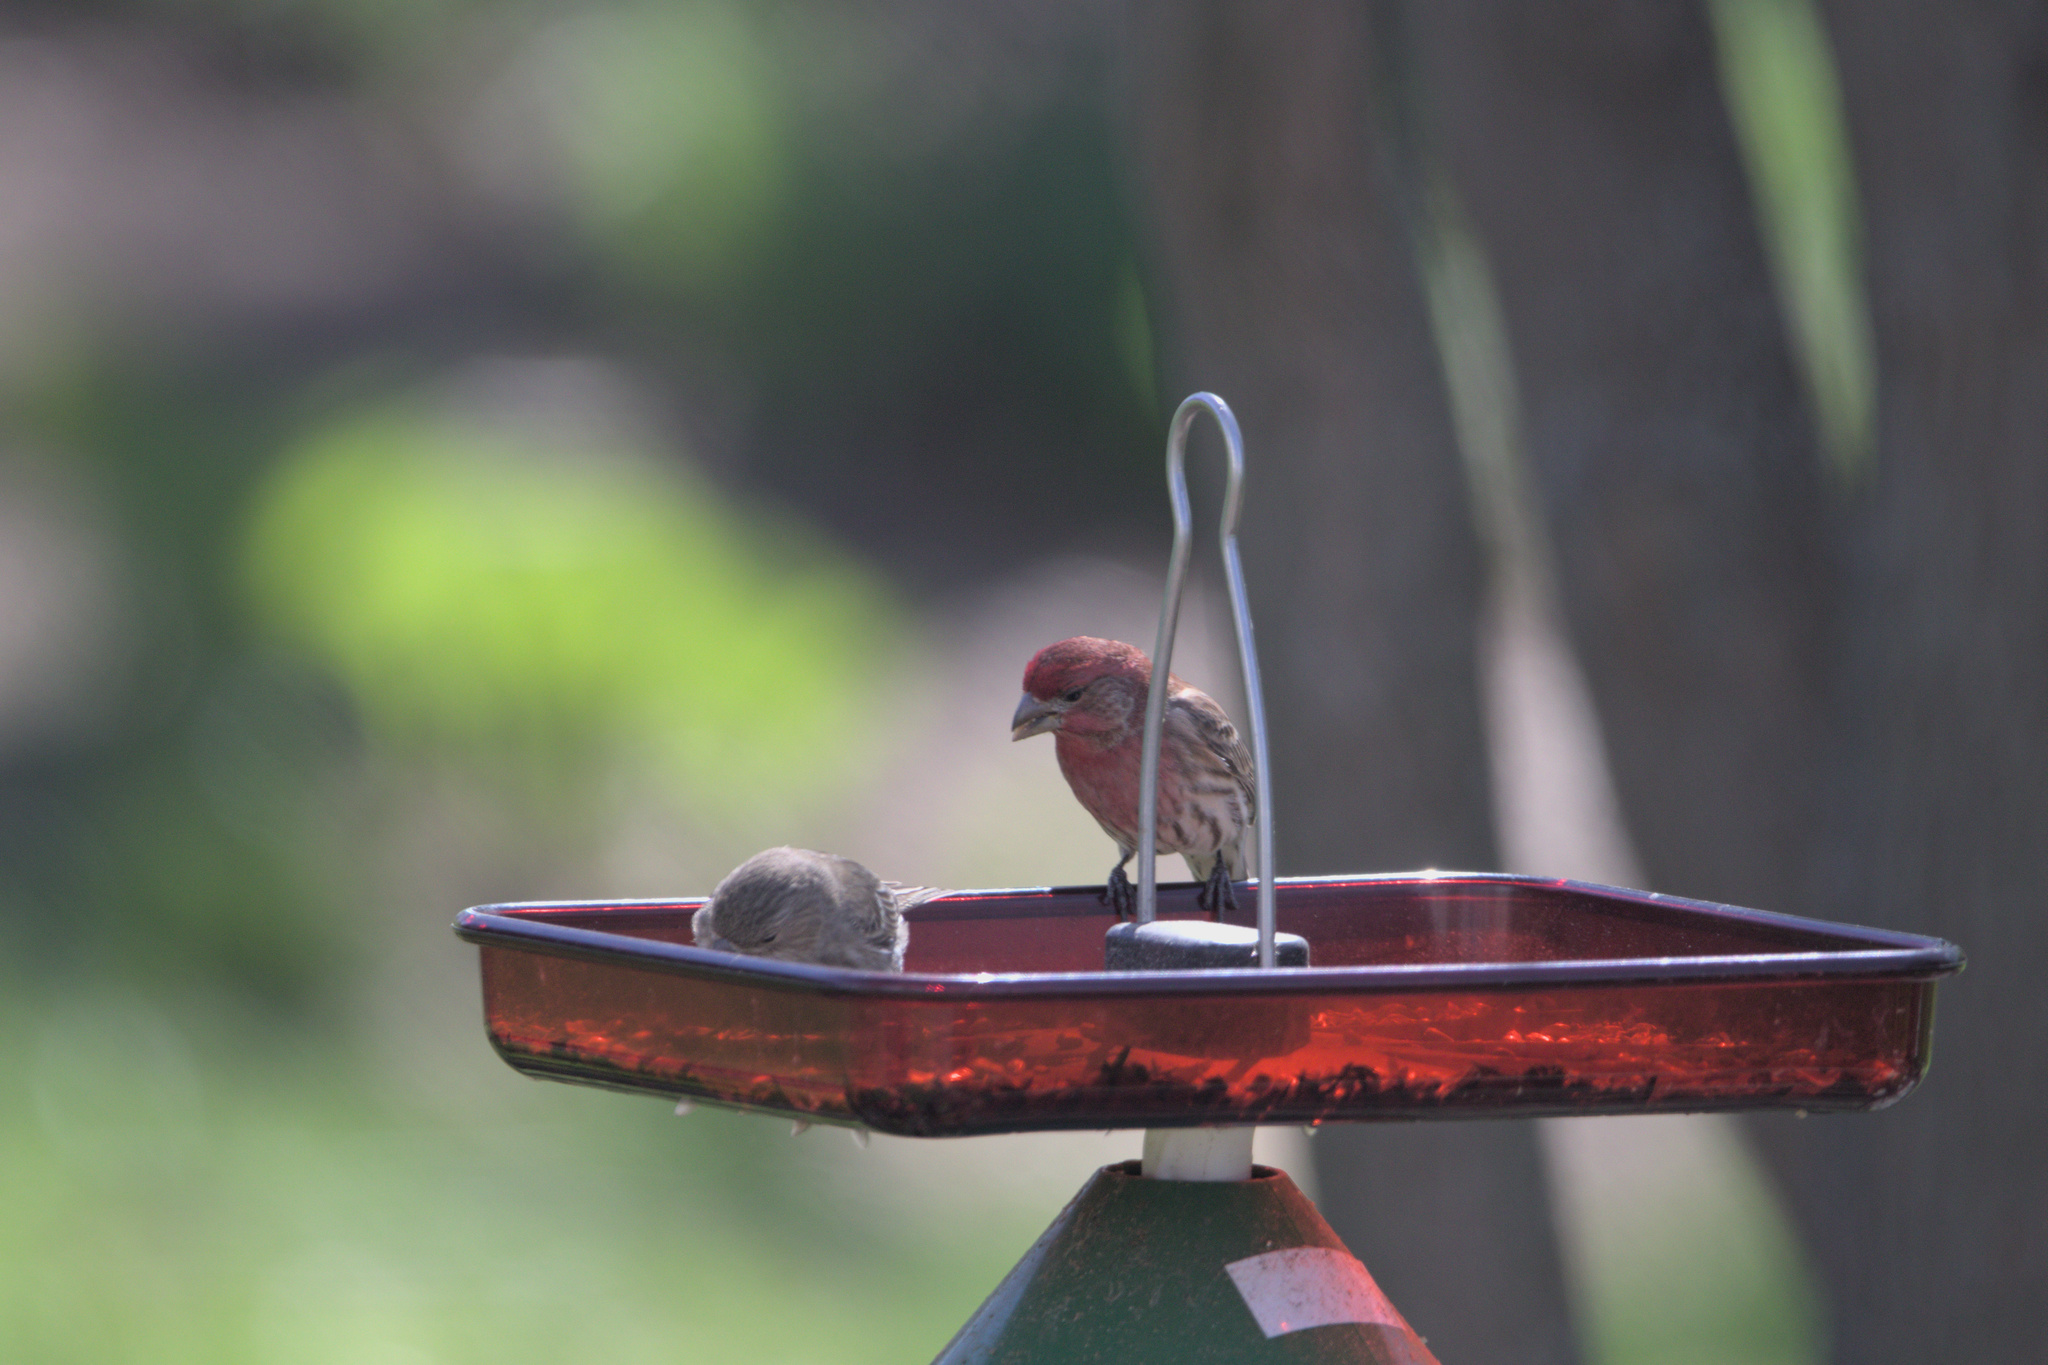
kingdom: Animalia
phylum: Chordata
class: Aves
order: Passeriformes
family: Fringillidae
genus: Haemorhous
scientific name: Haemorhous mexicanus
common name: House finch
